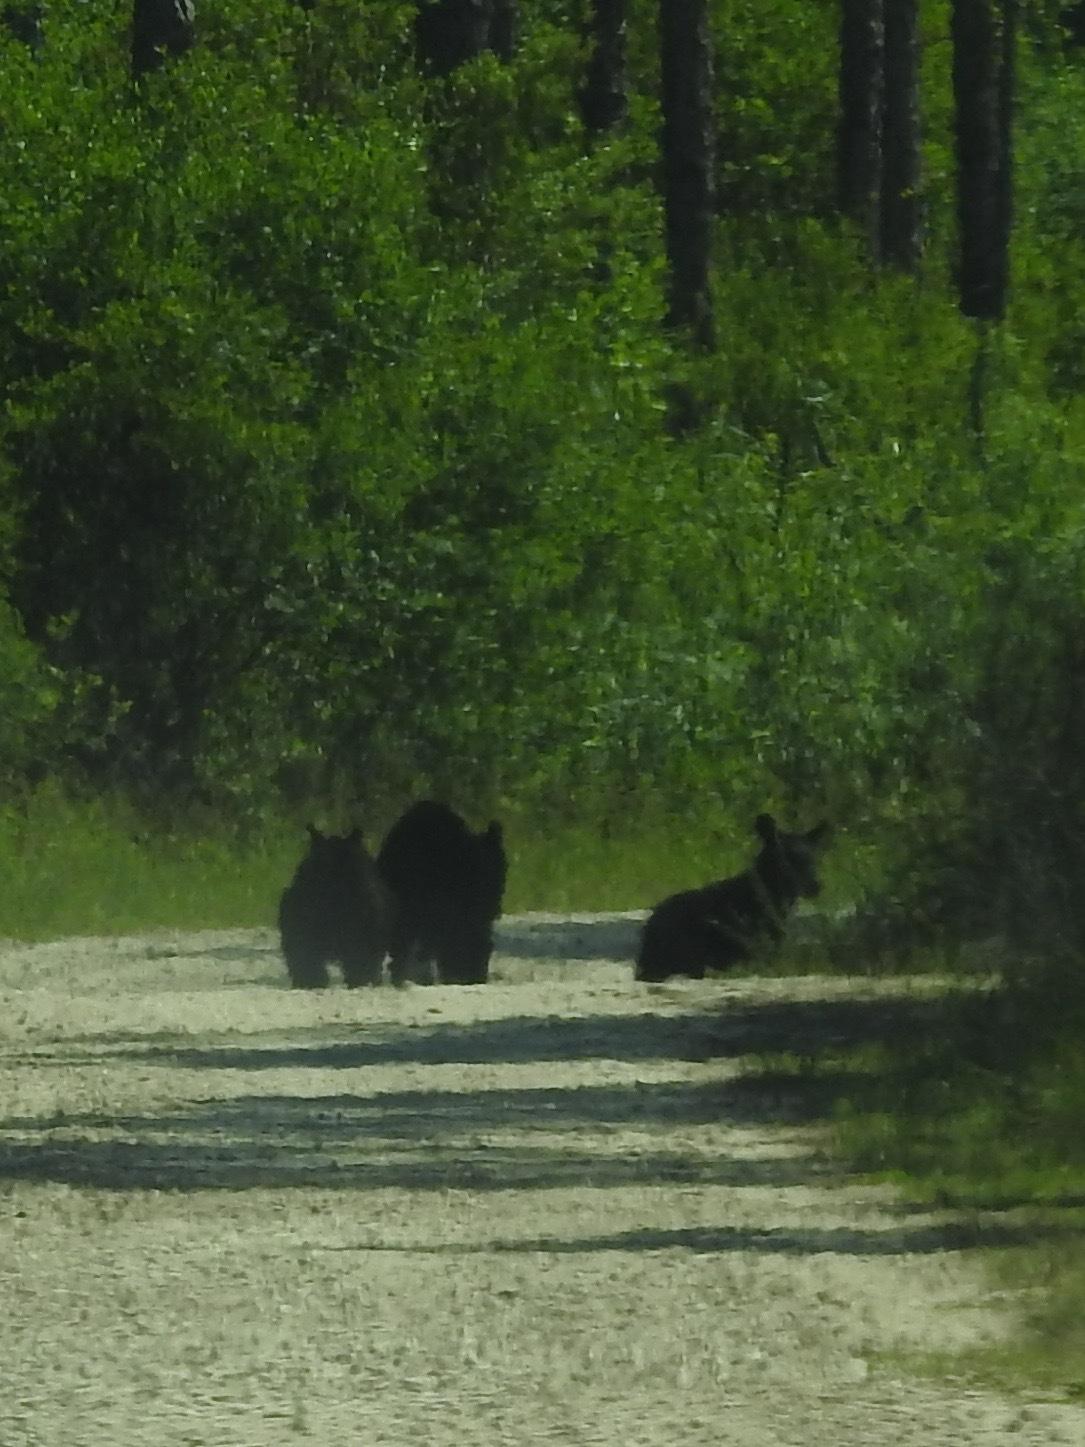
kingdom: Animalia
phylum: Chordata
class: Mammalia
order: Carnivora
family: Ursidae
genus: Ursus
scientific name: Ursus americanus
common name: American black bear
